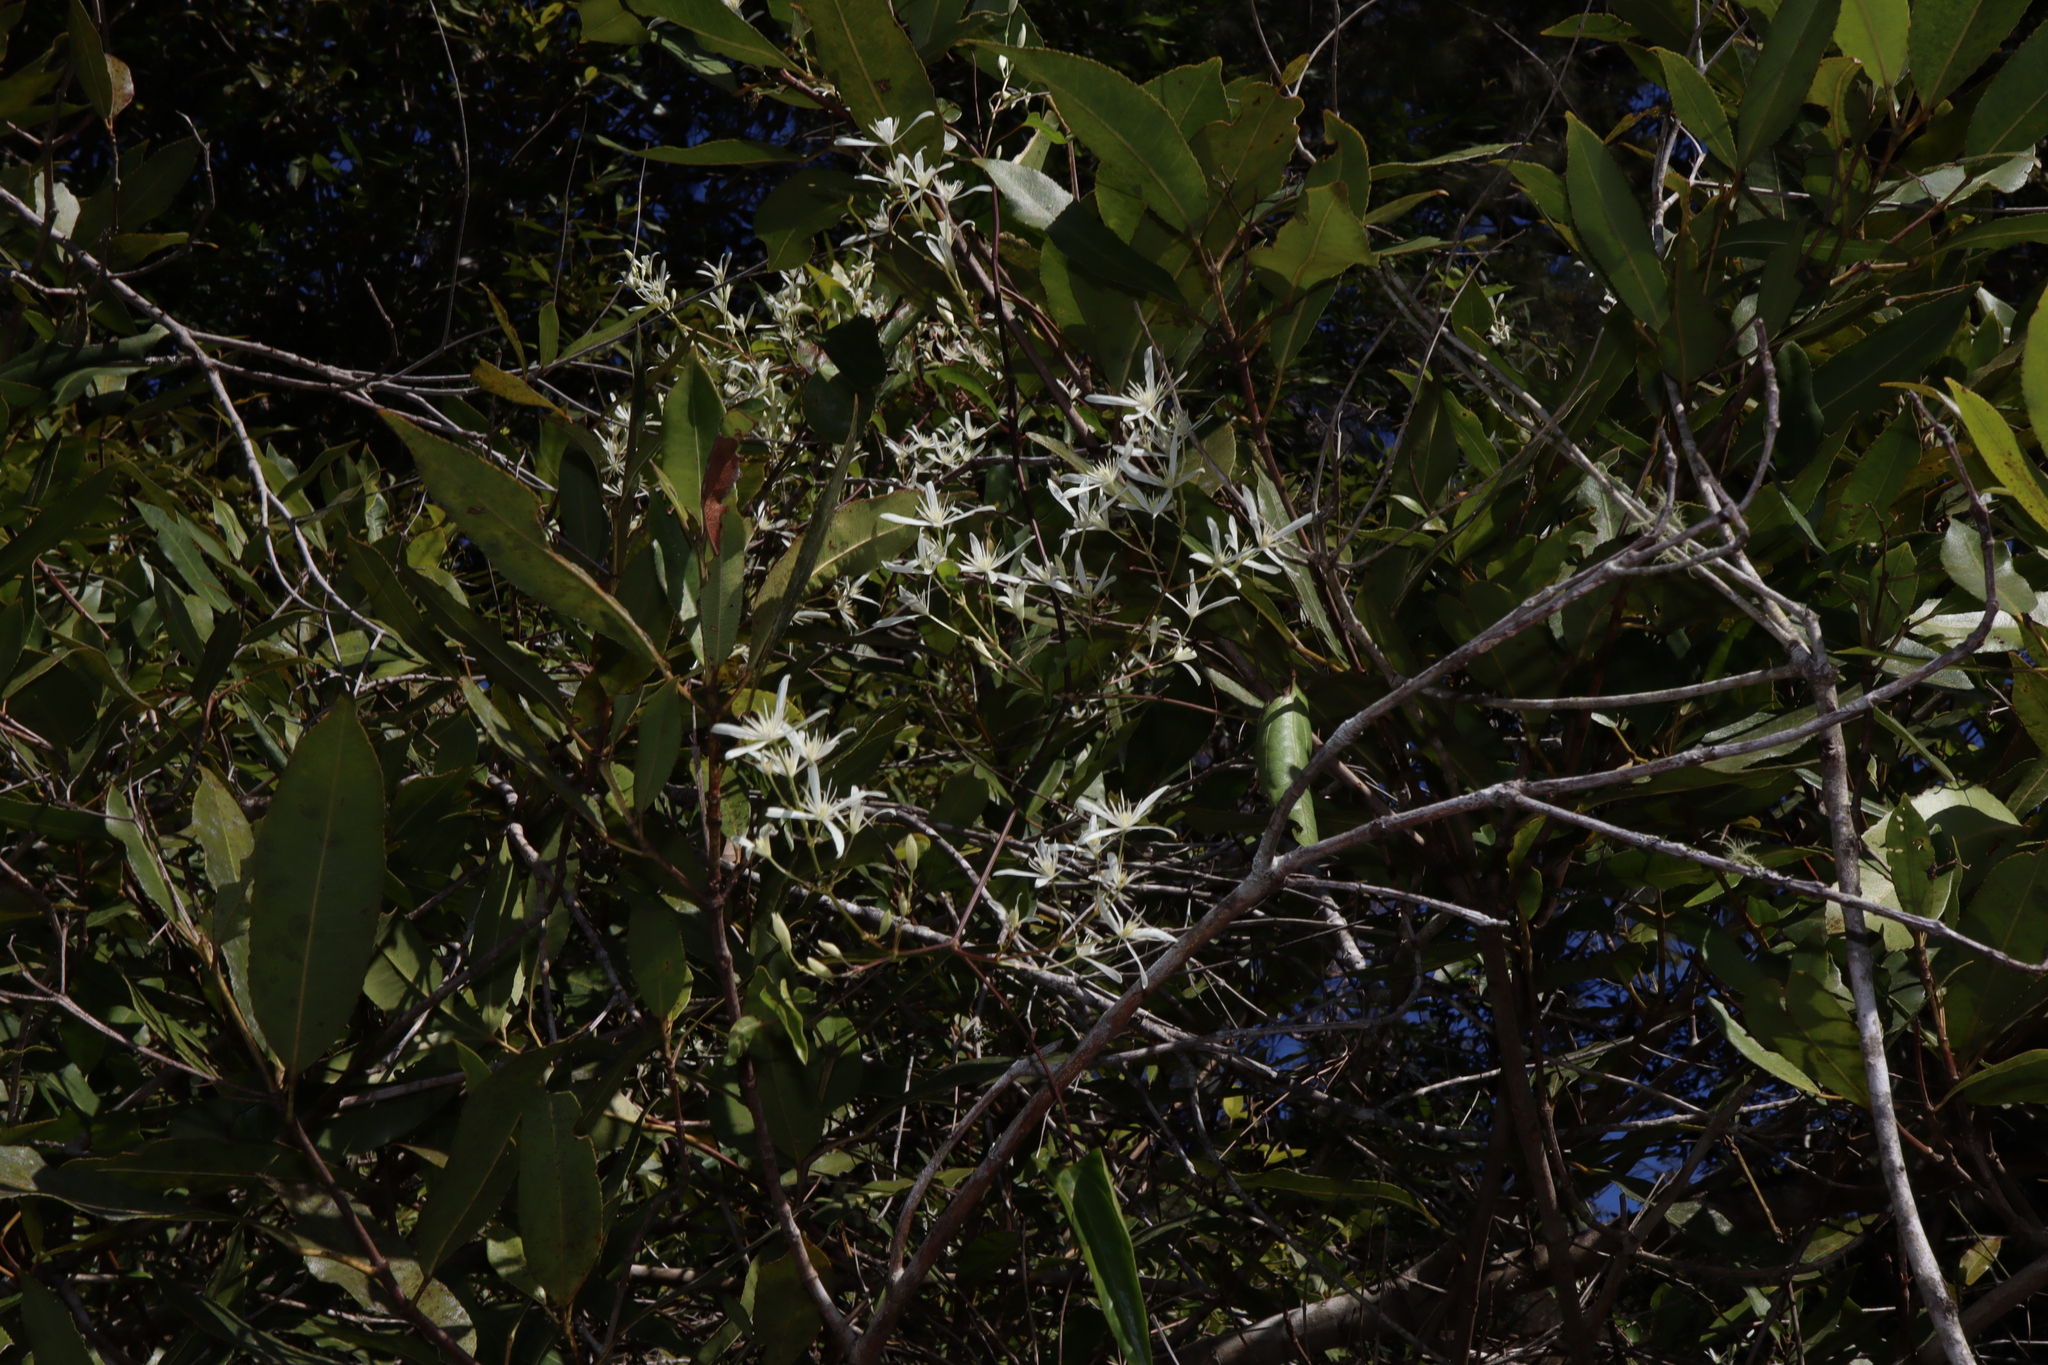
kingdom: Plantae
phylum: Tracheophyta
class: Magnoliopsida
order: Ranunculales
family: Ranunculaceae
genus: Clematis
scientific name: Clematis glycinoides
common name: Forest clematis
